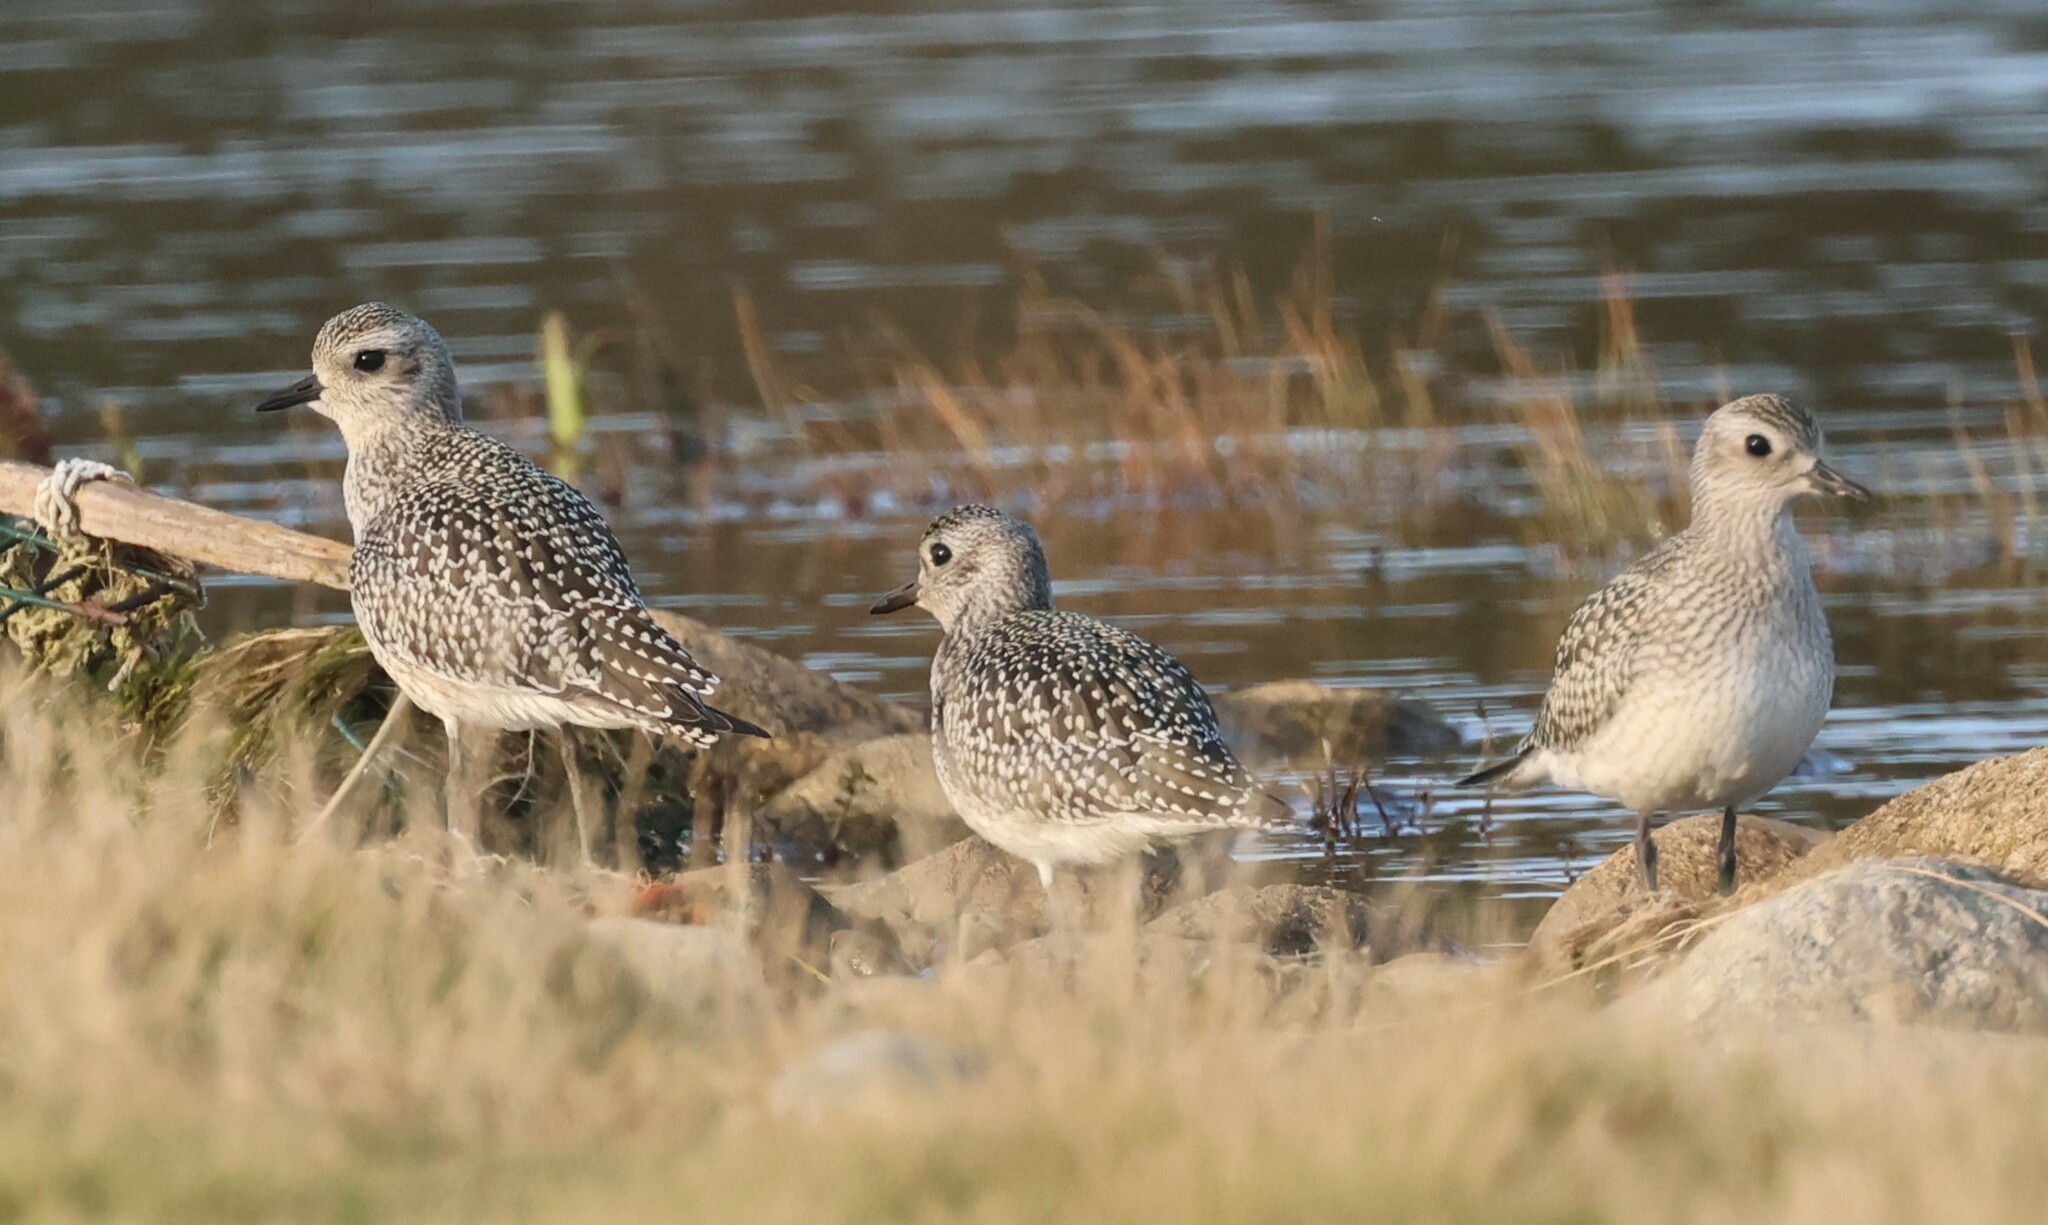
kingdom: Animalia
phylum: Chordata
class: Aves
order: Charadriiformes
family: Charadriidae
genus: Pluvialis
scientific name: Pluvialis squatarola
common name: Grey plover
